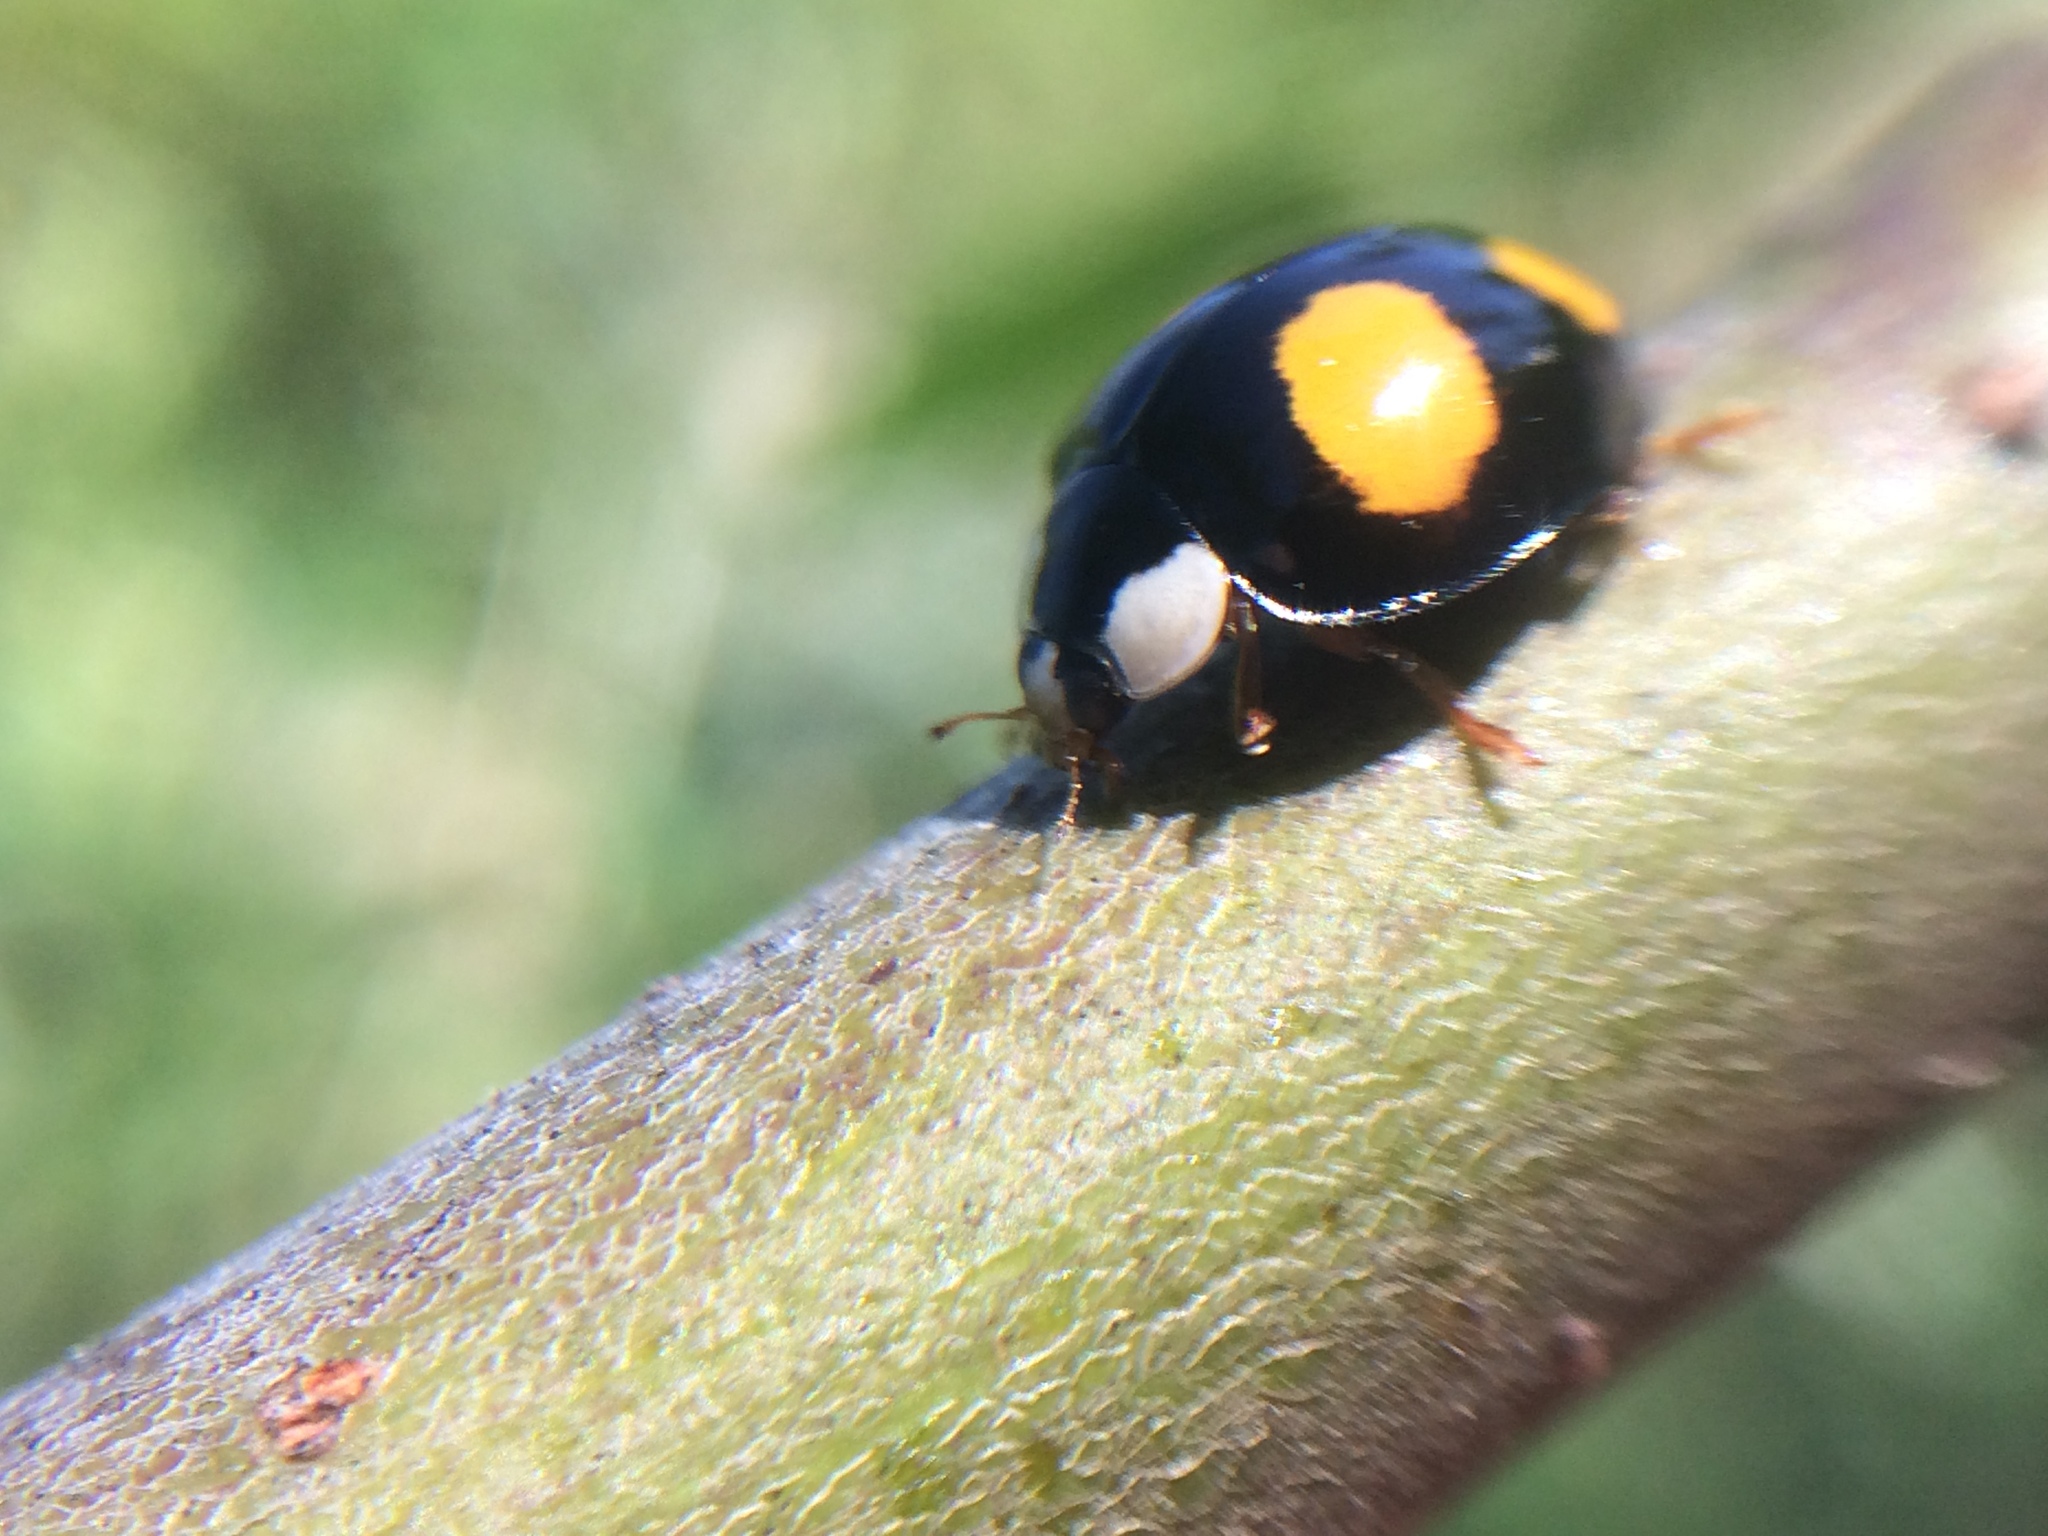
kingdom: Animalia
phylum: Arthropoda
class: Insecta
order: Coleoptera
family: Coccinellidae
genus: Harmonia
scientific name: Harmonia axyridis
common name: Harlequin ladybird
